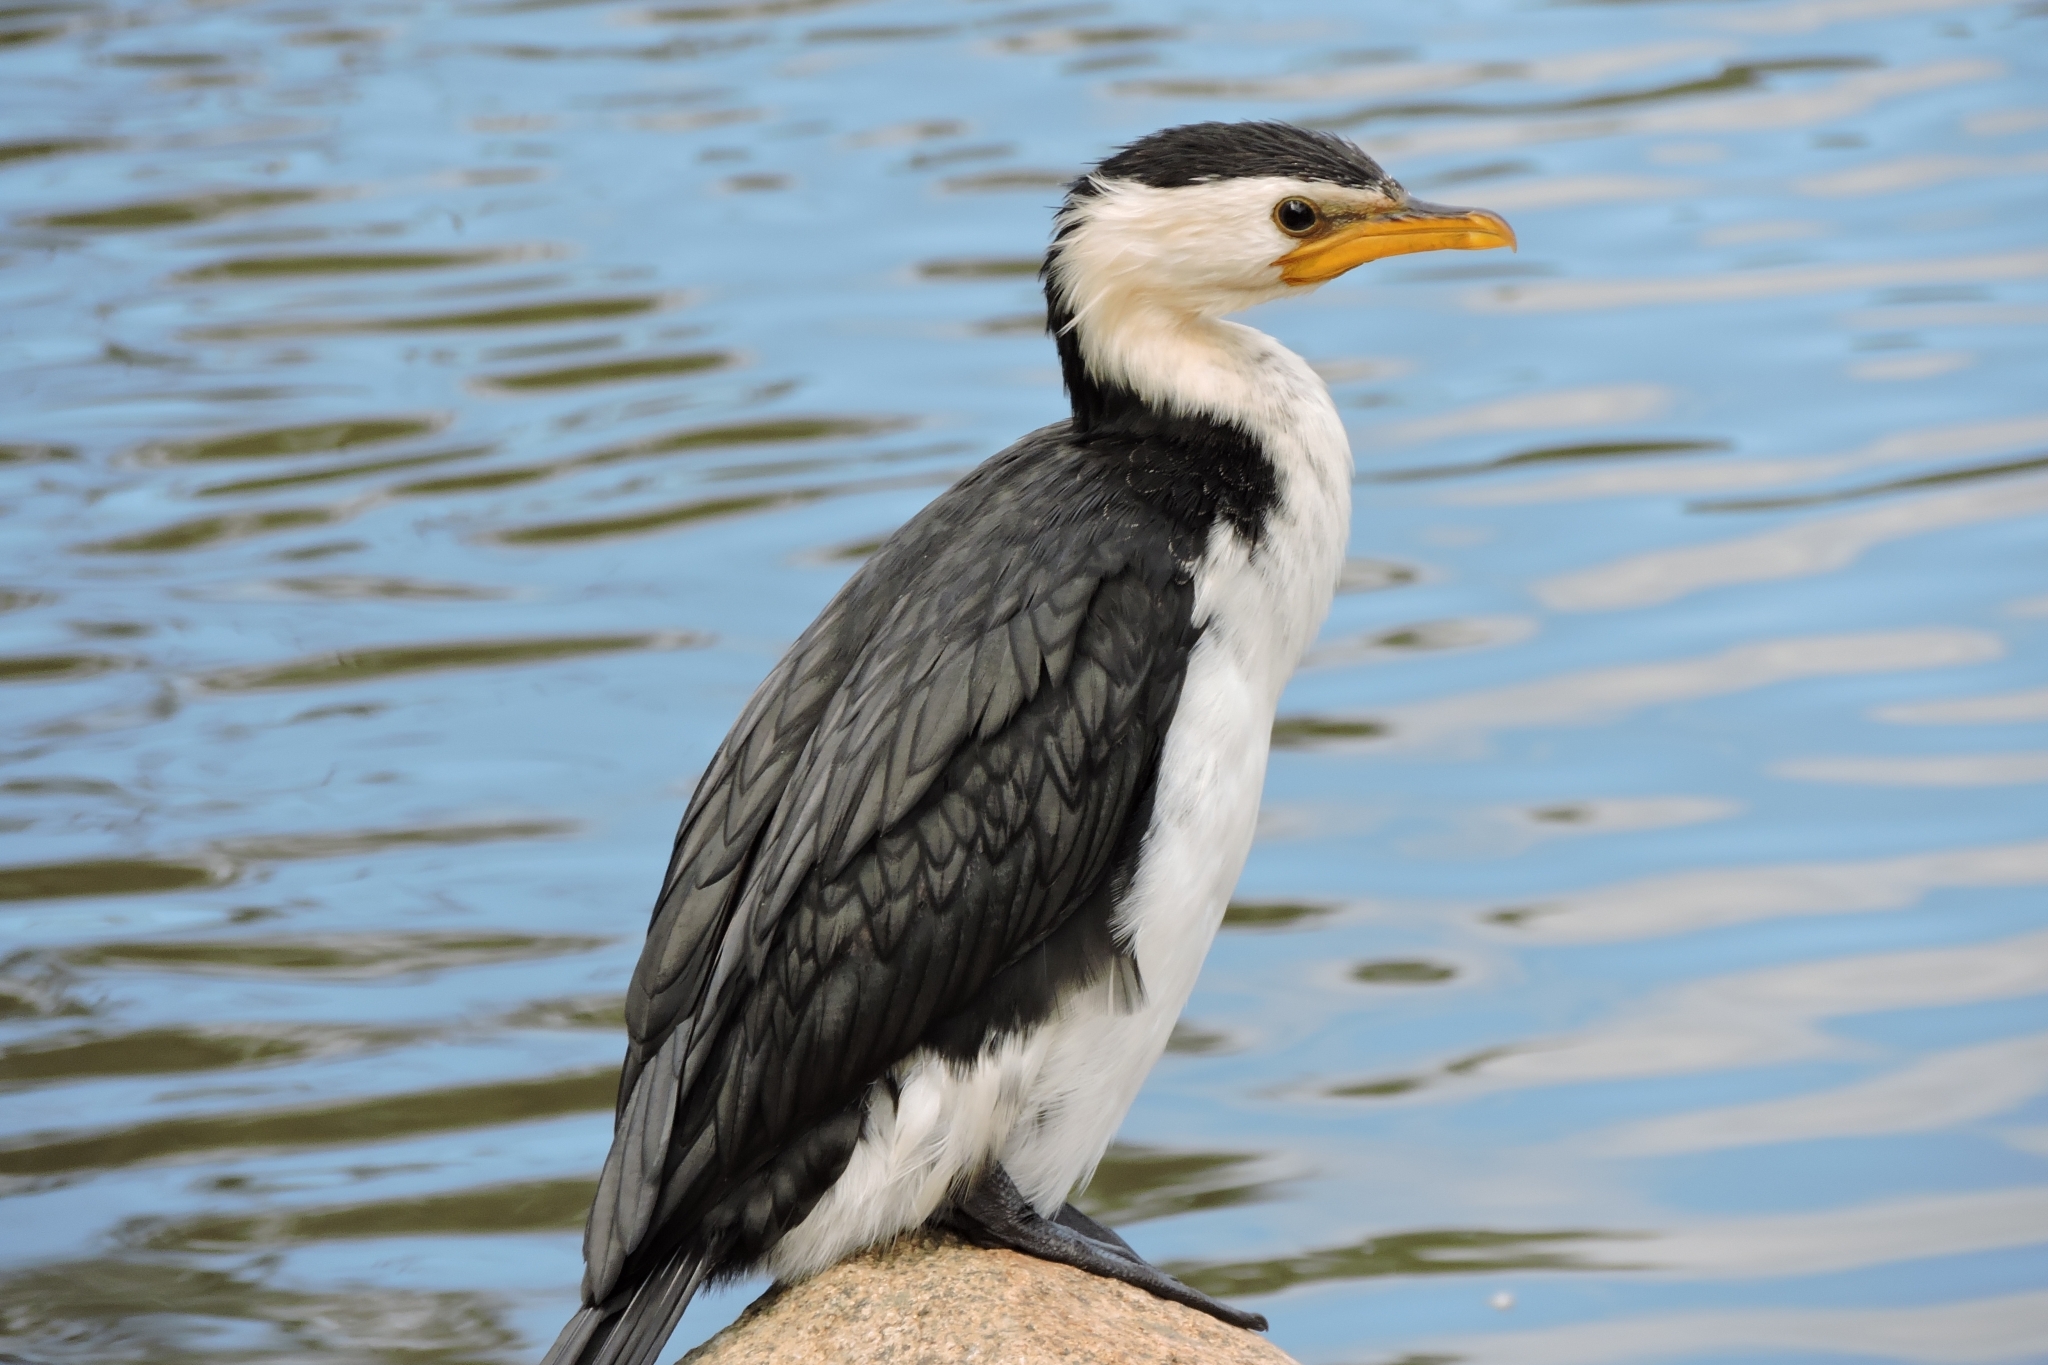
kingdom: Animalia
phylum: Chordata
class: Aves
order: Suliformes
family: Phalacrocoracidae
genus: Microcarbo
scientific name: Microcarbo melanoleucos
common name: Little pied cormorant
